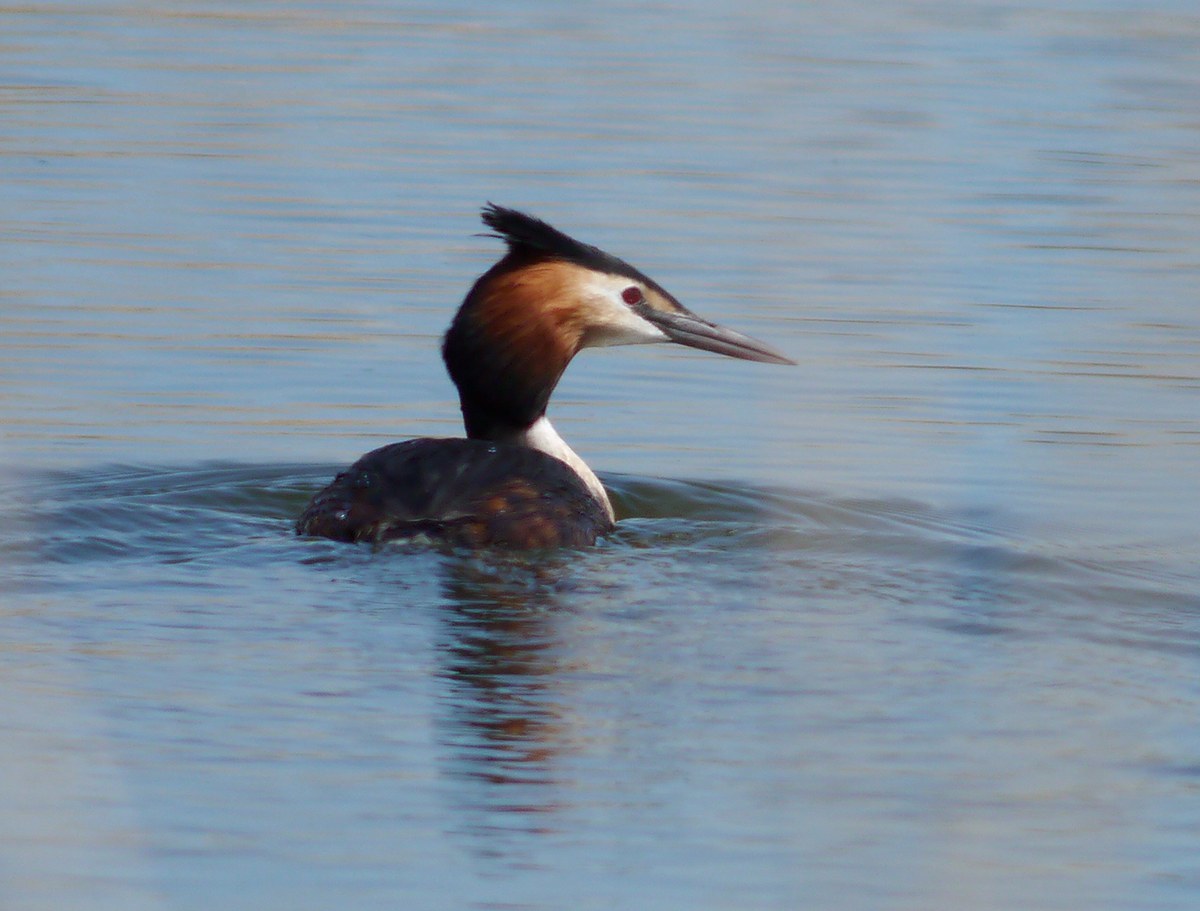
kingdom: Animalia
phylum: Chordata
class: Aves
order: Podicipediformes
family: Podicipedidae
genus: Podiceps
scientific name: Podiceps cristatus
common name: Great crested grebe
